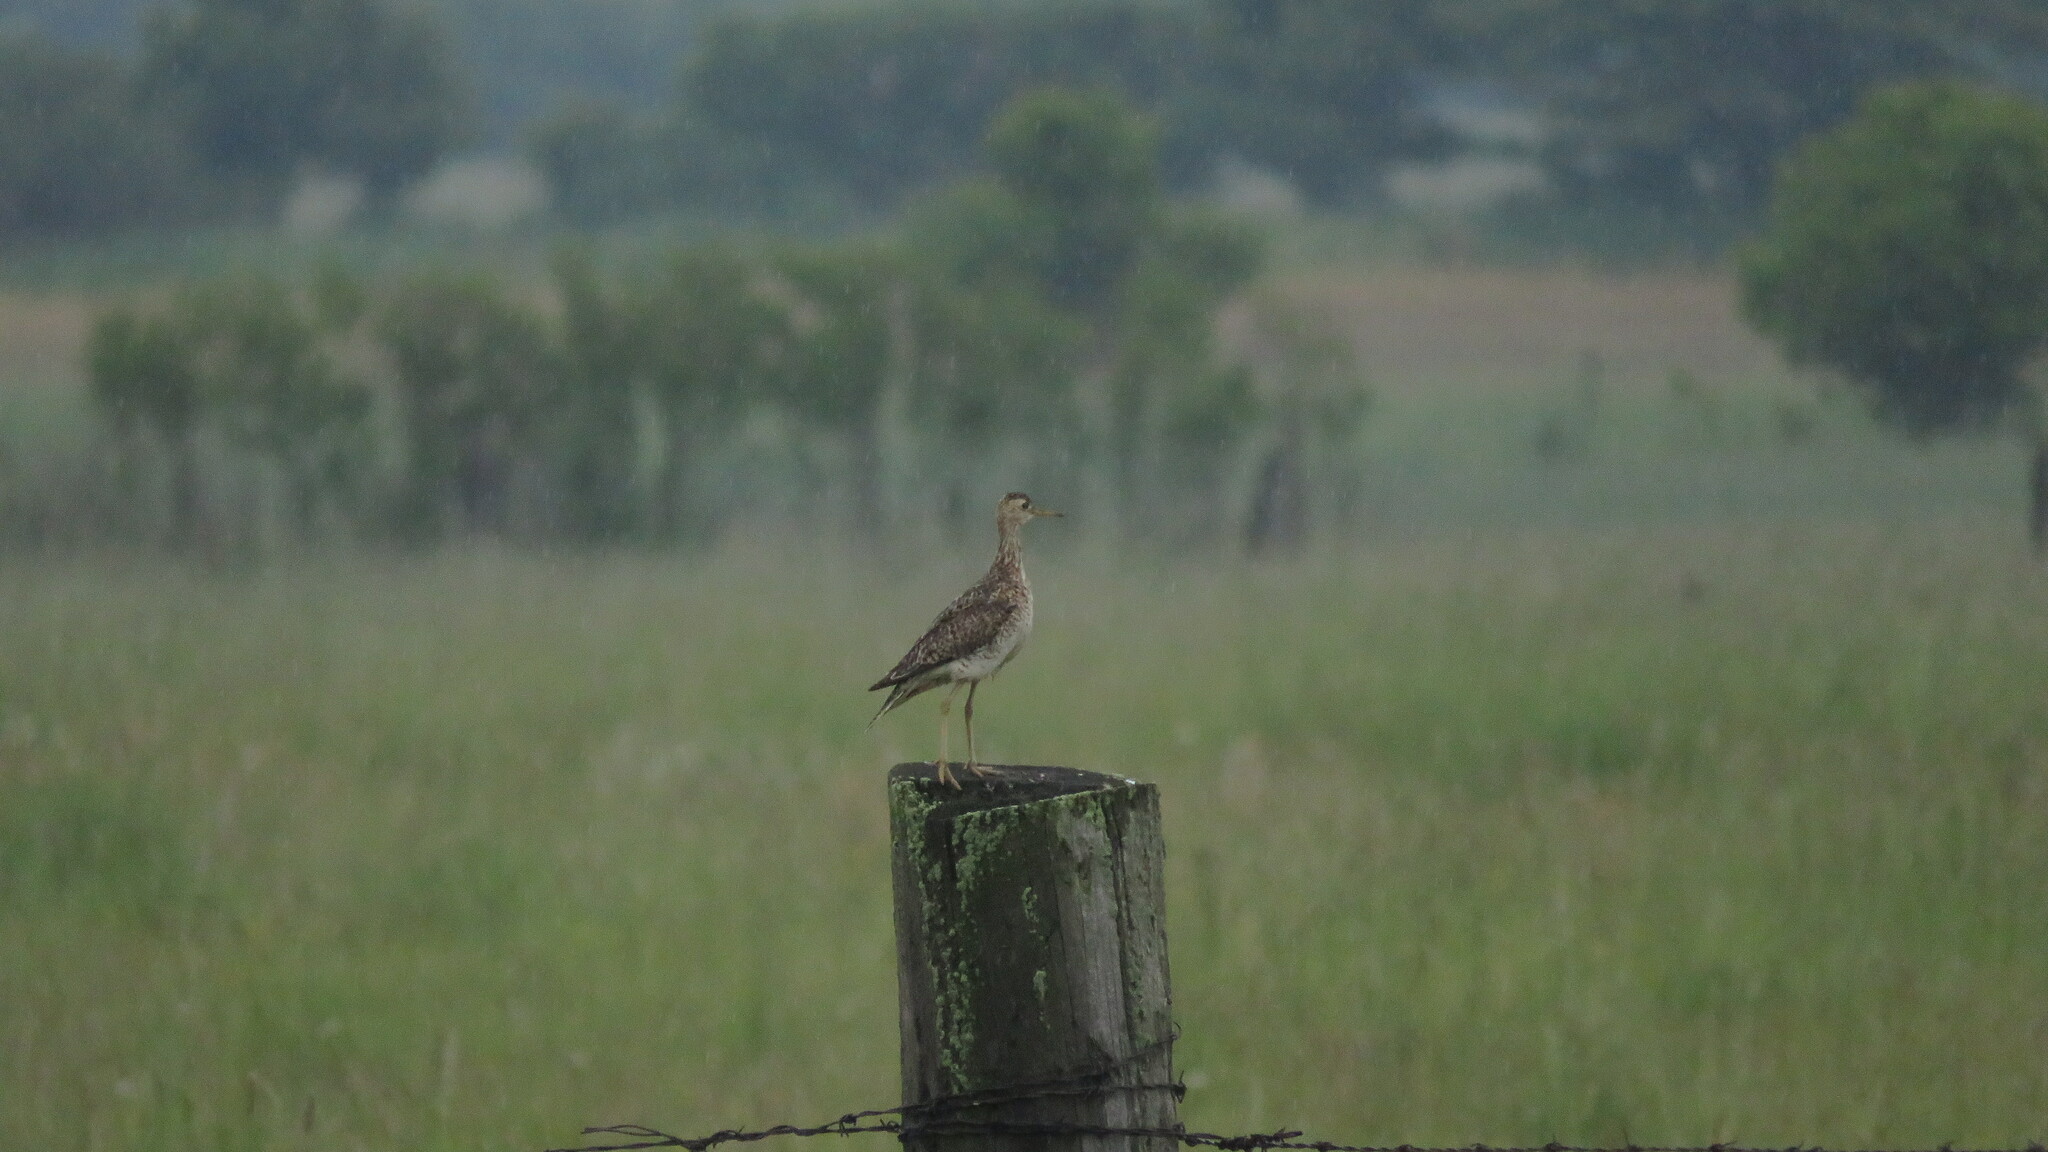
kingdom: Animalia
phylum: Chordata
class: Aves
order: Charadriiformes
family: Scolopacidae
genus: Bartramia
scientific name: Bartramia longicauda
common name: Upland sandpiper
